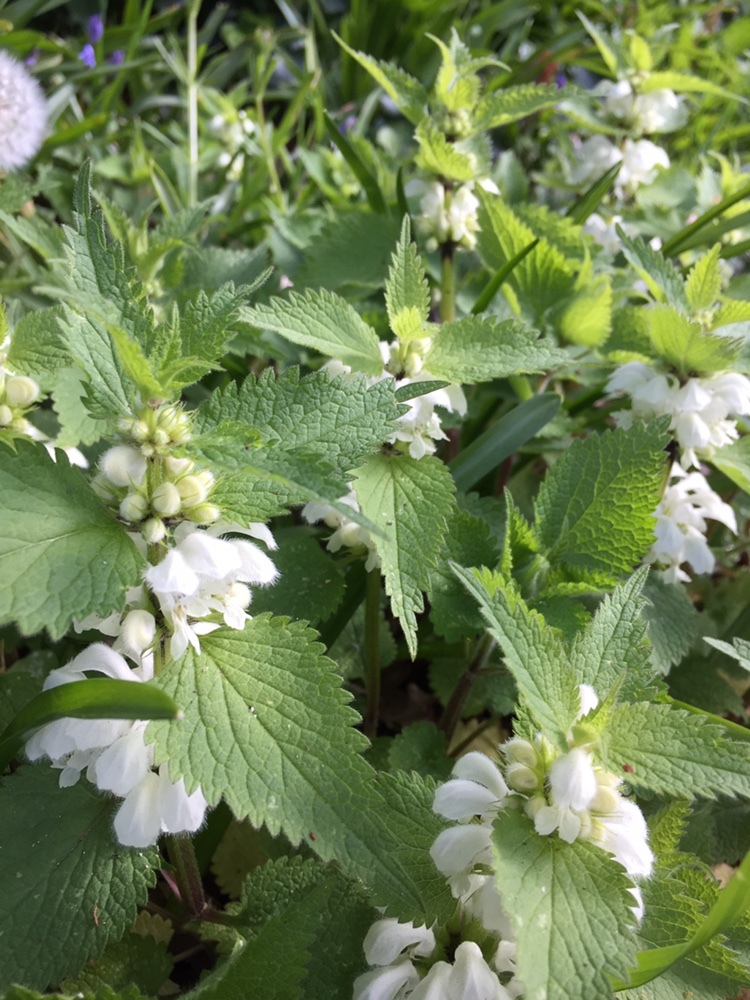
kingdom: Plantae
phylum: Tracheophyta
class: Magnoliopsida
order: Lamiales
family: Lamiaceae
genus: Lamium
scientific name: Lamium album
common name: White dead-nettle
